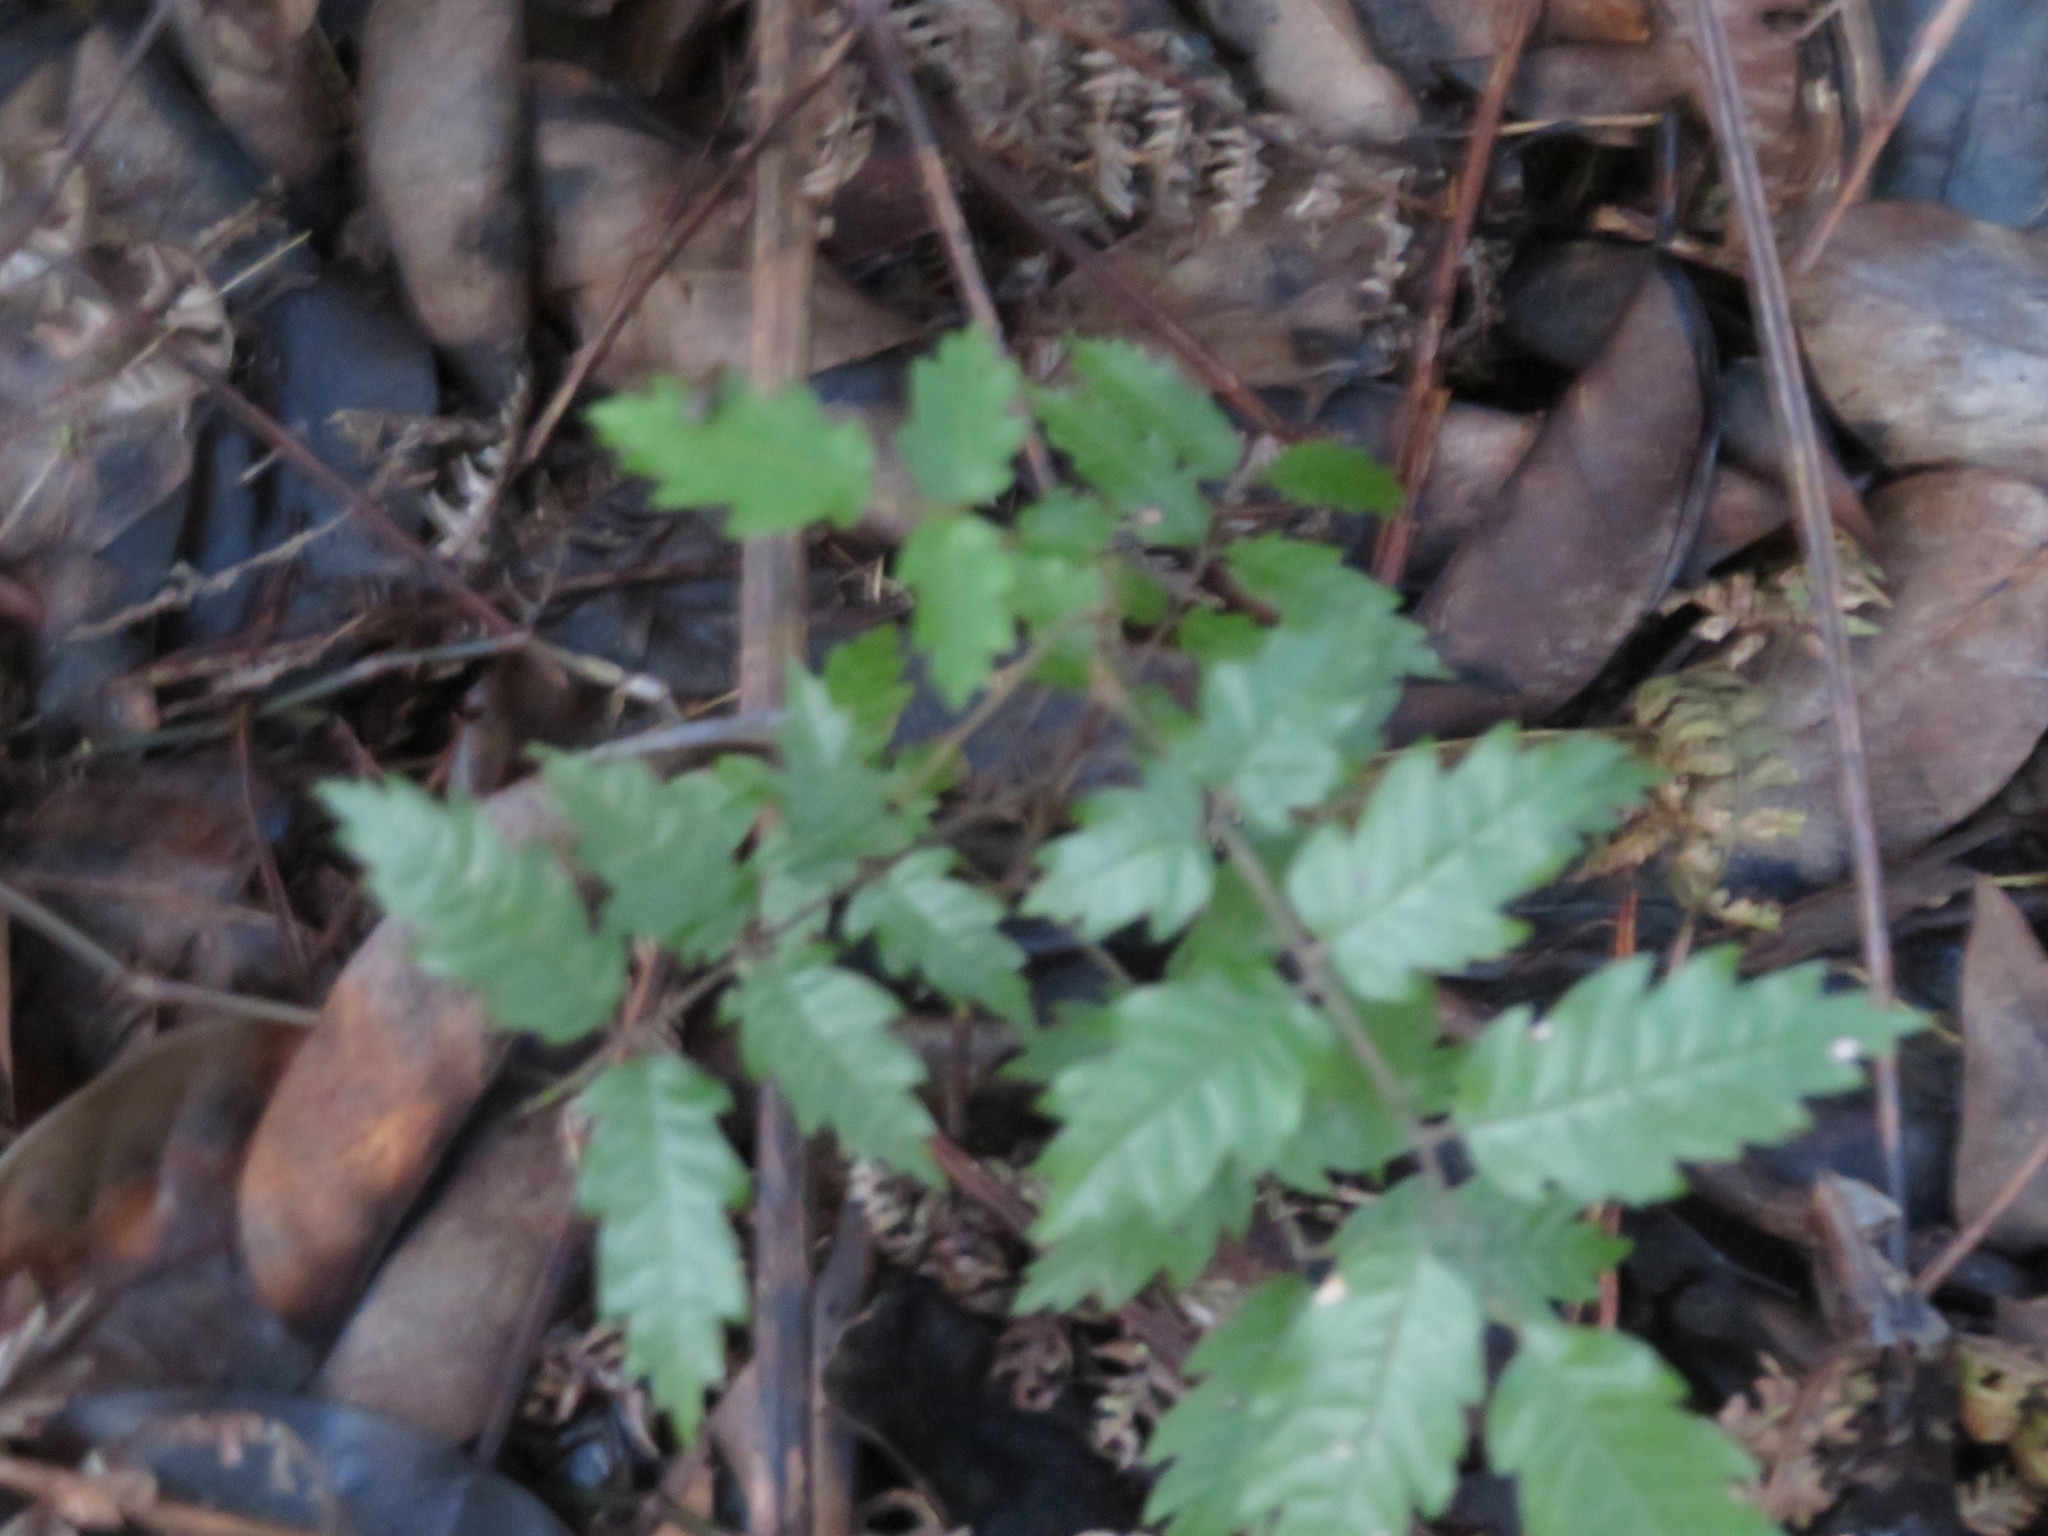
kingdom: Plantae
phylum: Tracheophyta
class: Magnoliopsida
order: Sapindales
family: Sapindaceae
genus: Alectryon
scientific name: Alectryon excelsus
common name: Three kings titoki
